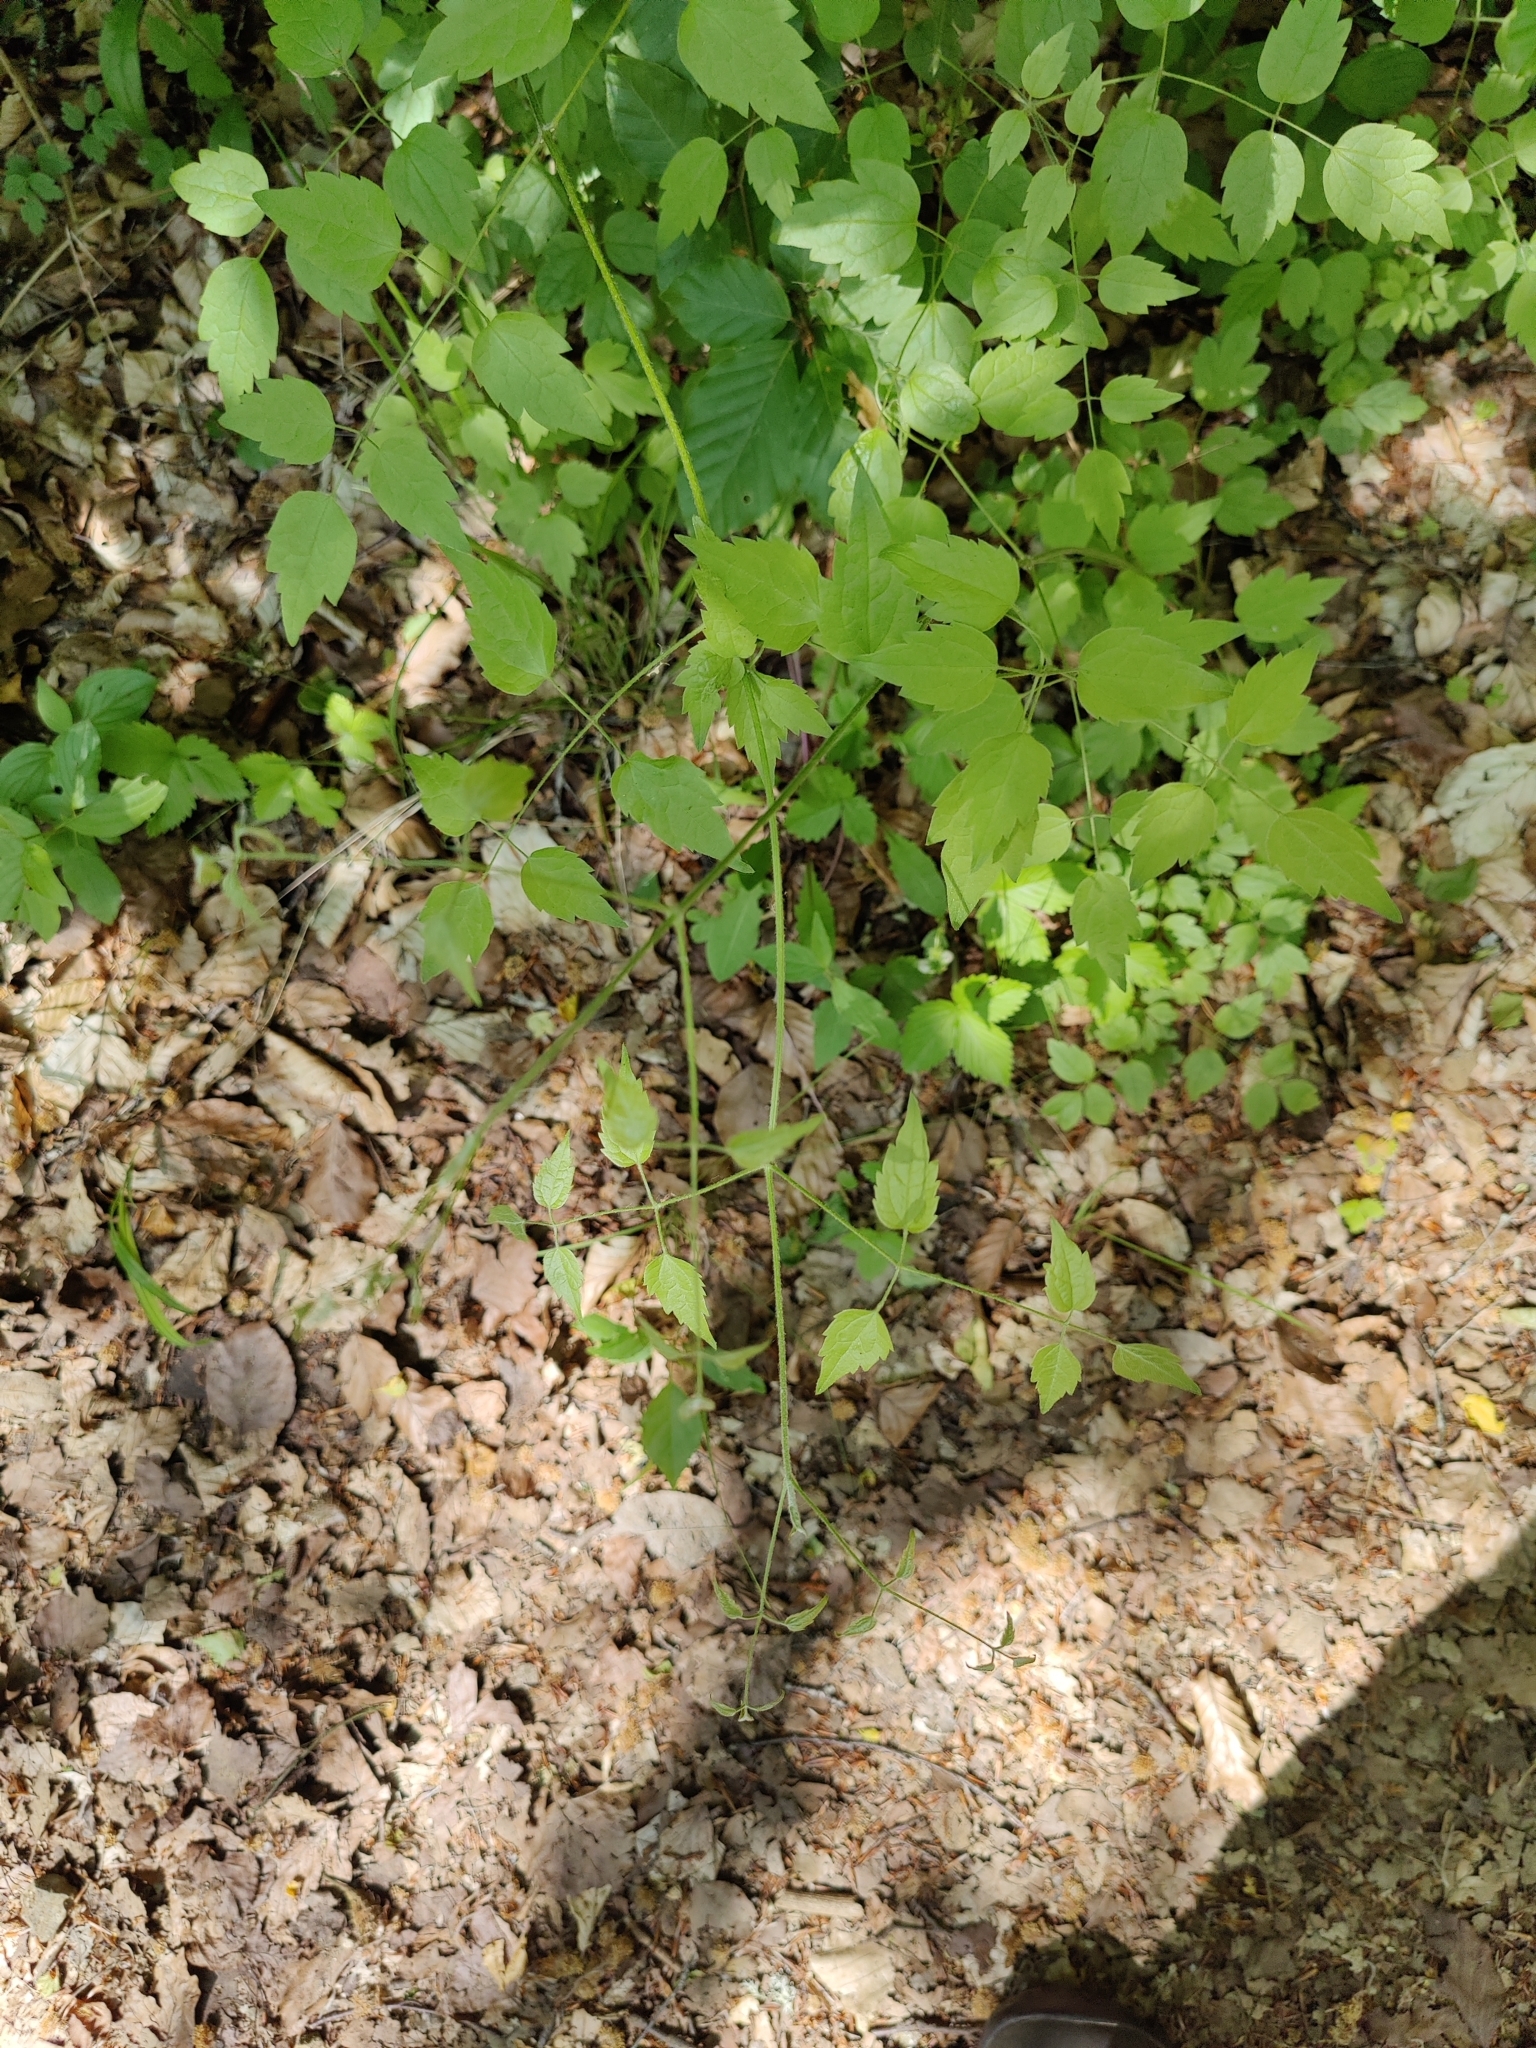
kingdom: Plantae
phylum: Tracheophyta
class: Magnoliopsida
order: Ranunculales
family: Ranunculaceae
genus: Clematis
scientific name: Clematis vitalba
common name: Evergreen clematis
